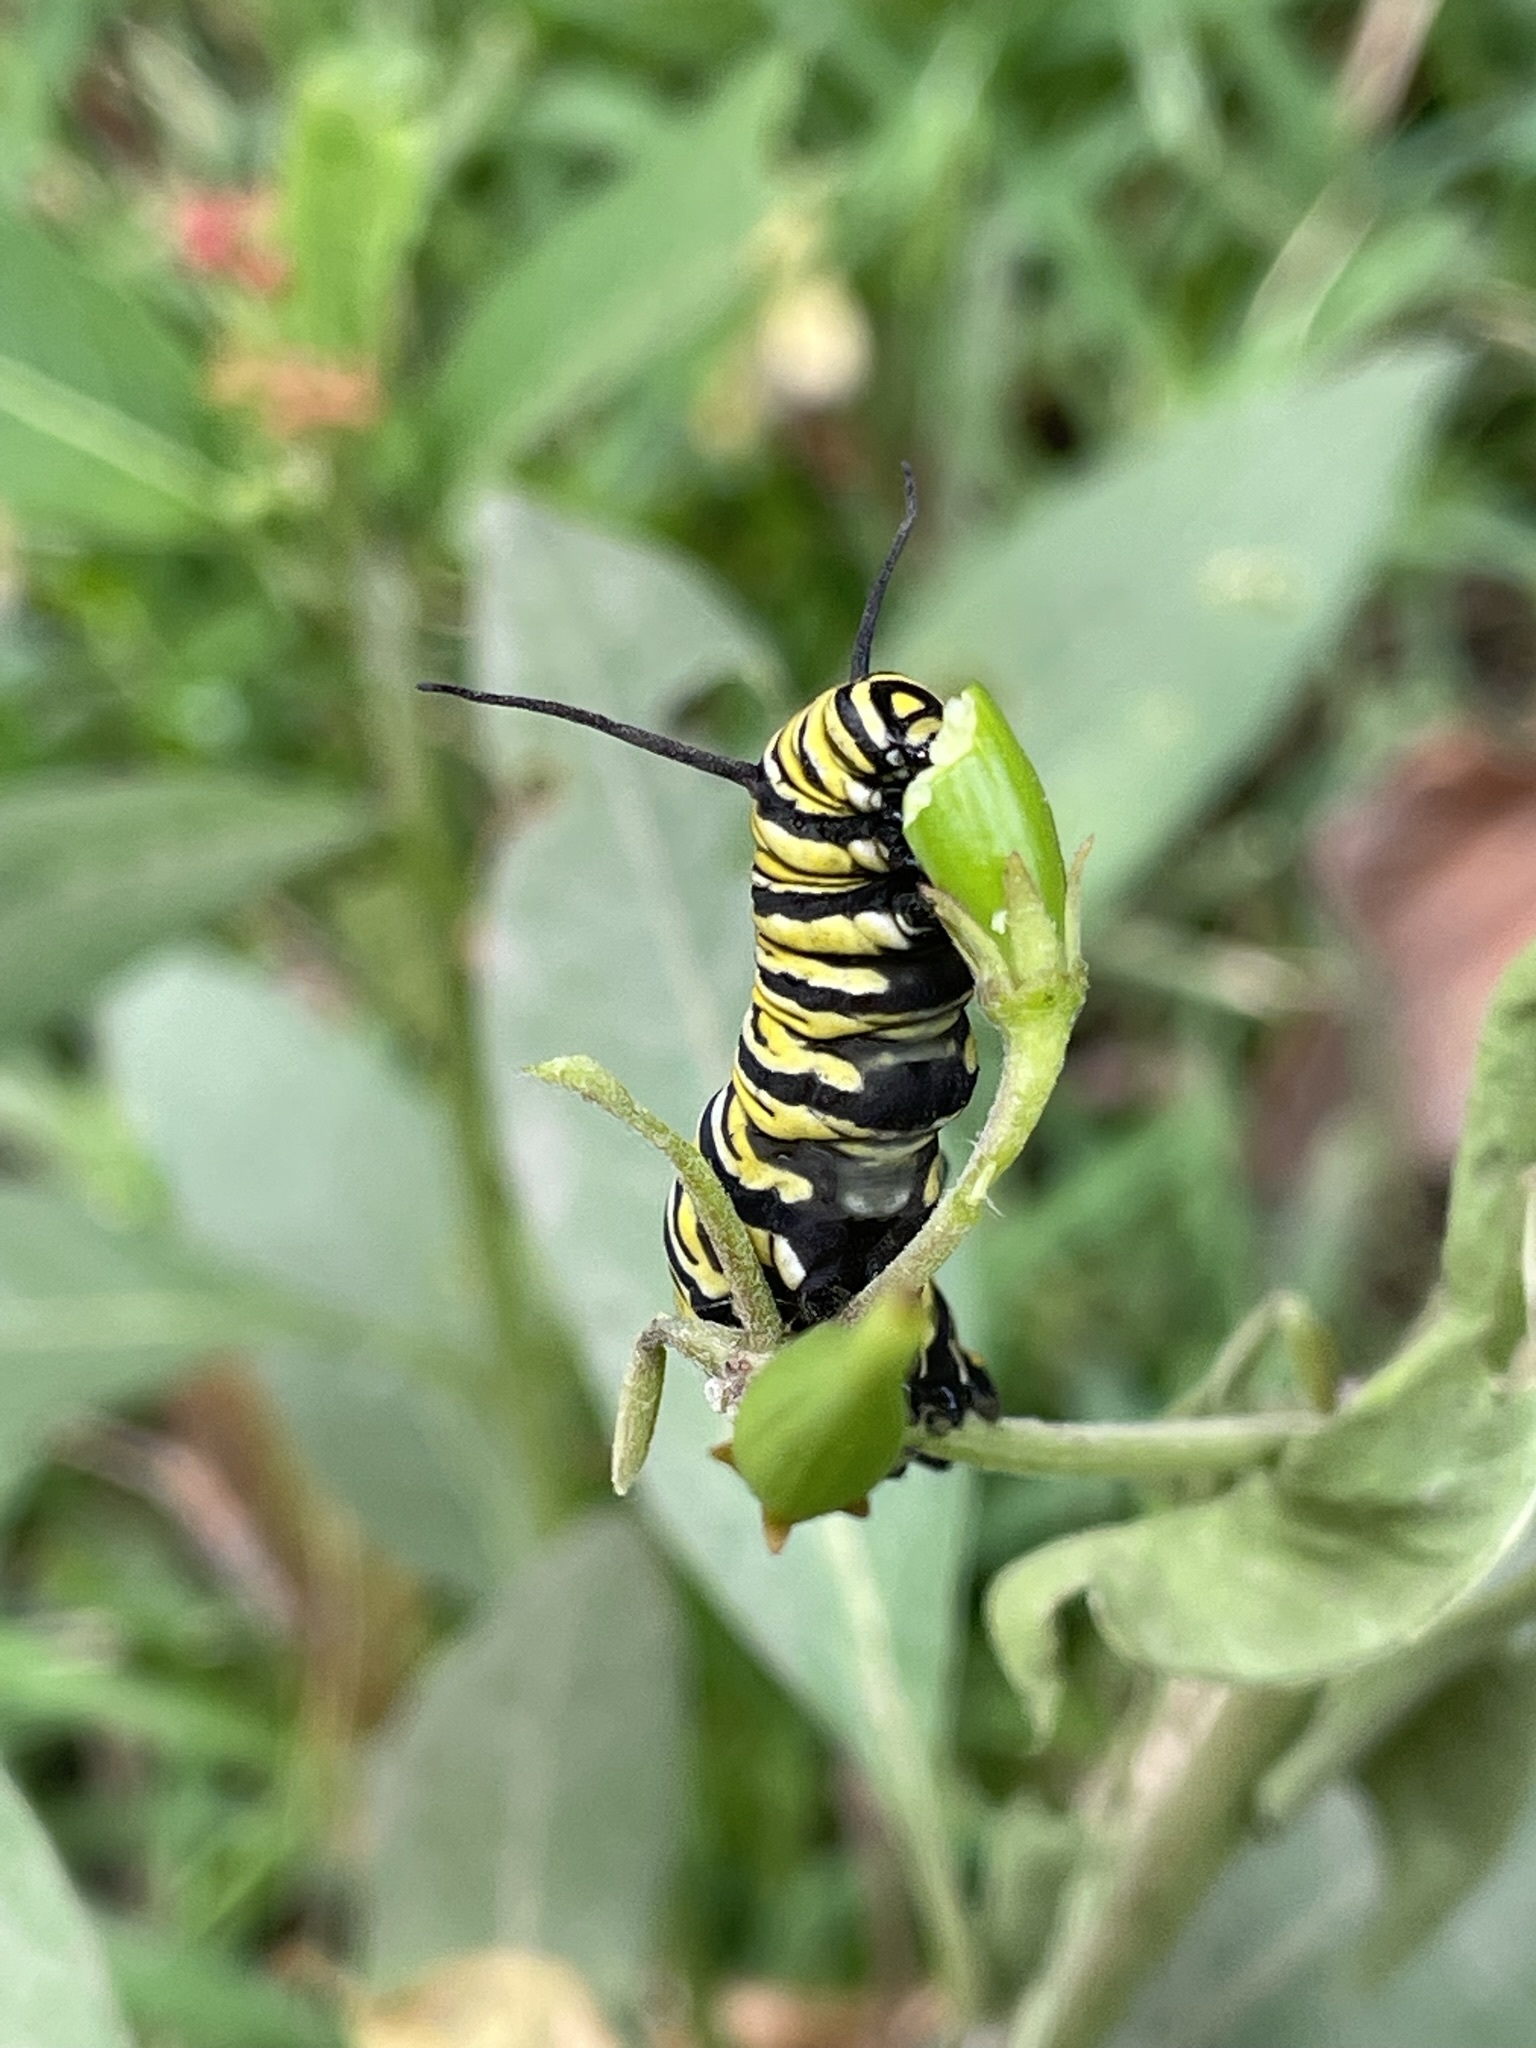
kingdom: Animalia
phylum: Arthropoda
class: Insecta
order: Lepidoptera
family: Nymphalidae
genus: Danaus
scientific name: Danaus plexippus
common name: Monarch
